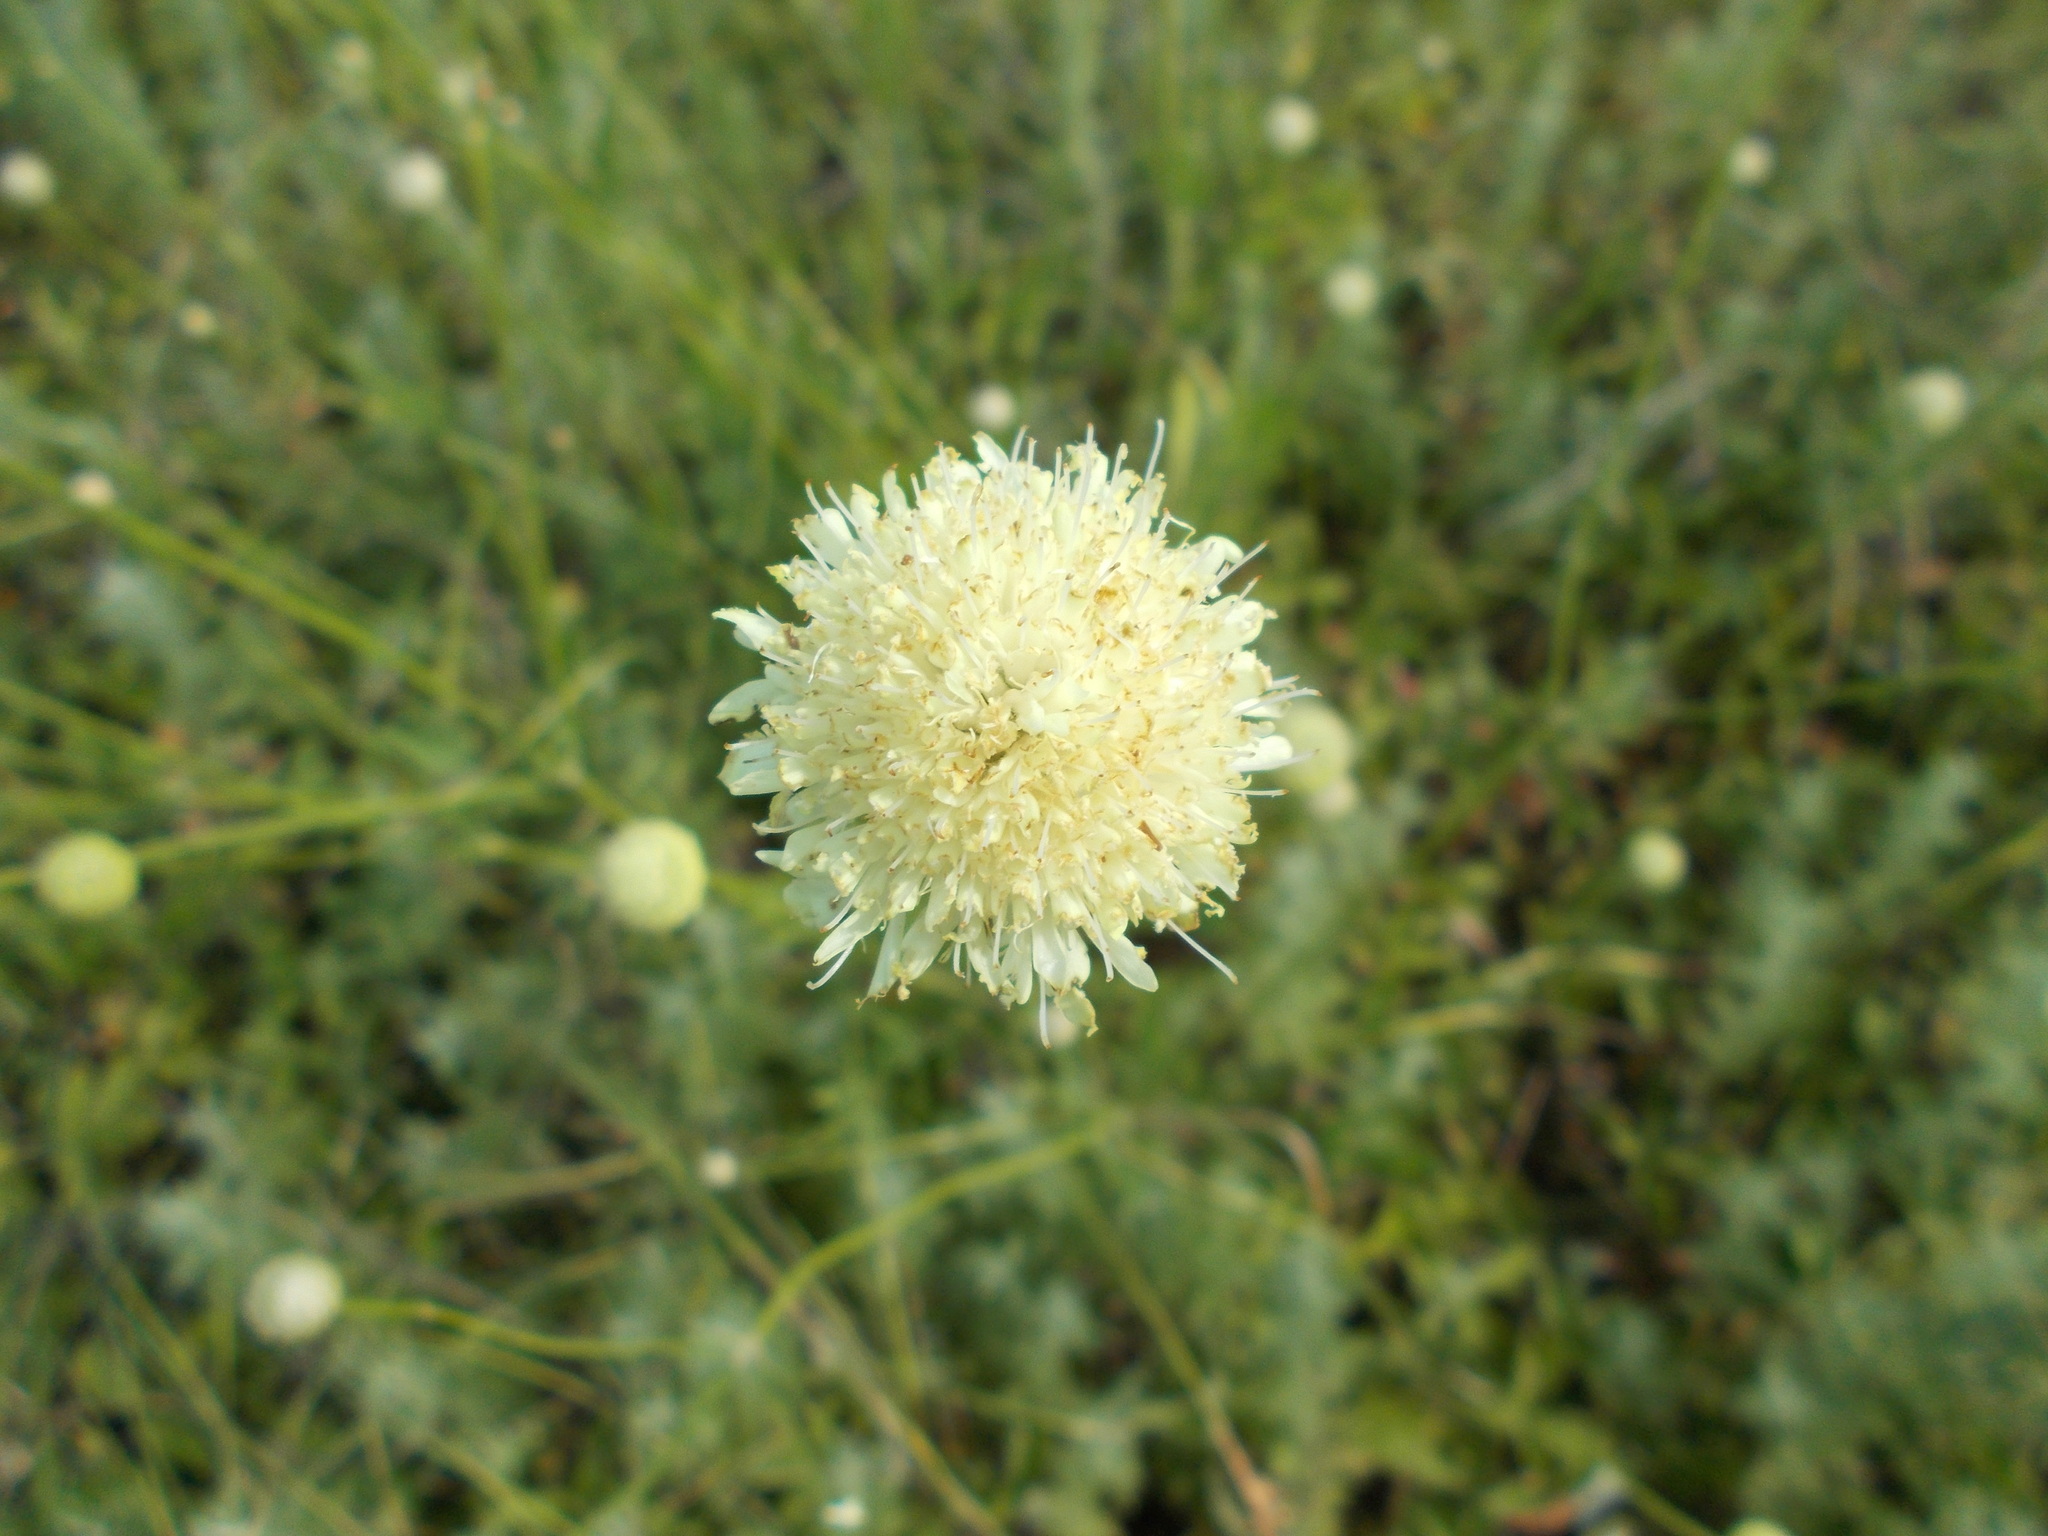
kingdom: Plantae
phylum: Tracheophyta
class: Magnoliopsida
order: Dipsacales
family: Caprifoliaceae
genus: Cephalaria
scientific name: Cephalaria uralensis
